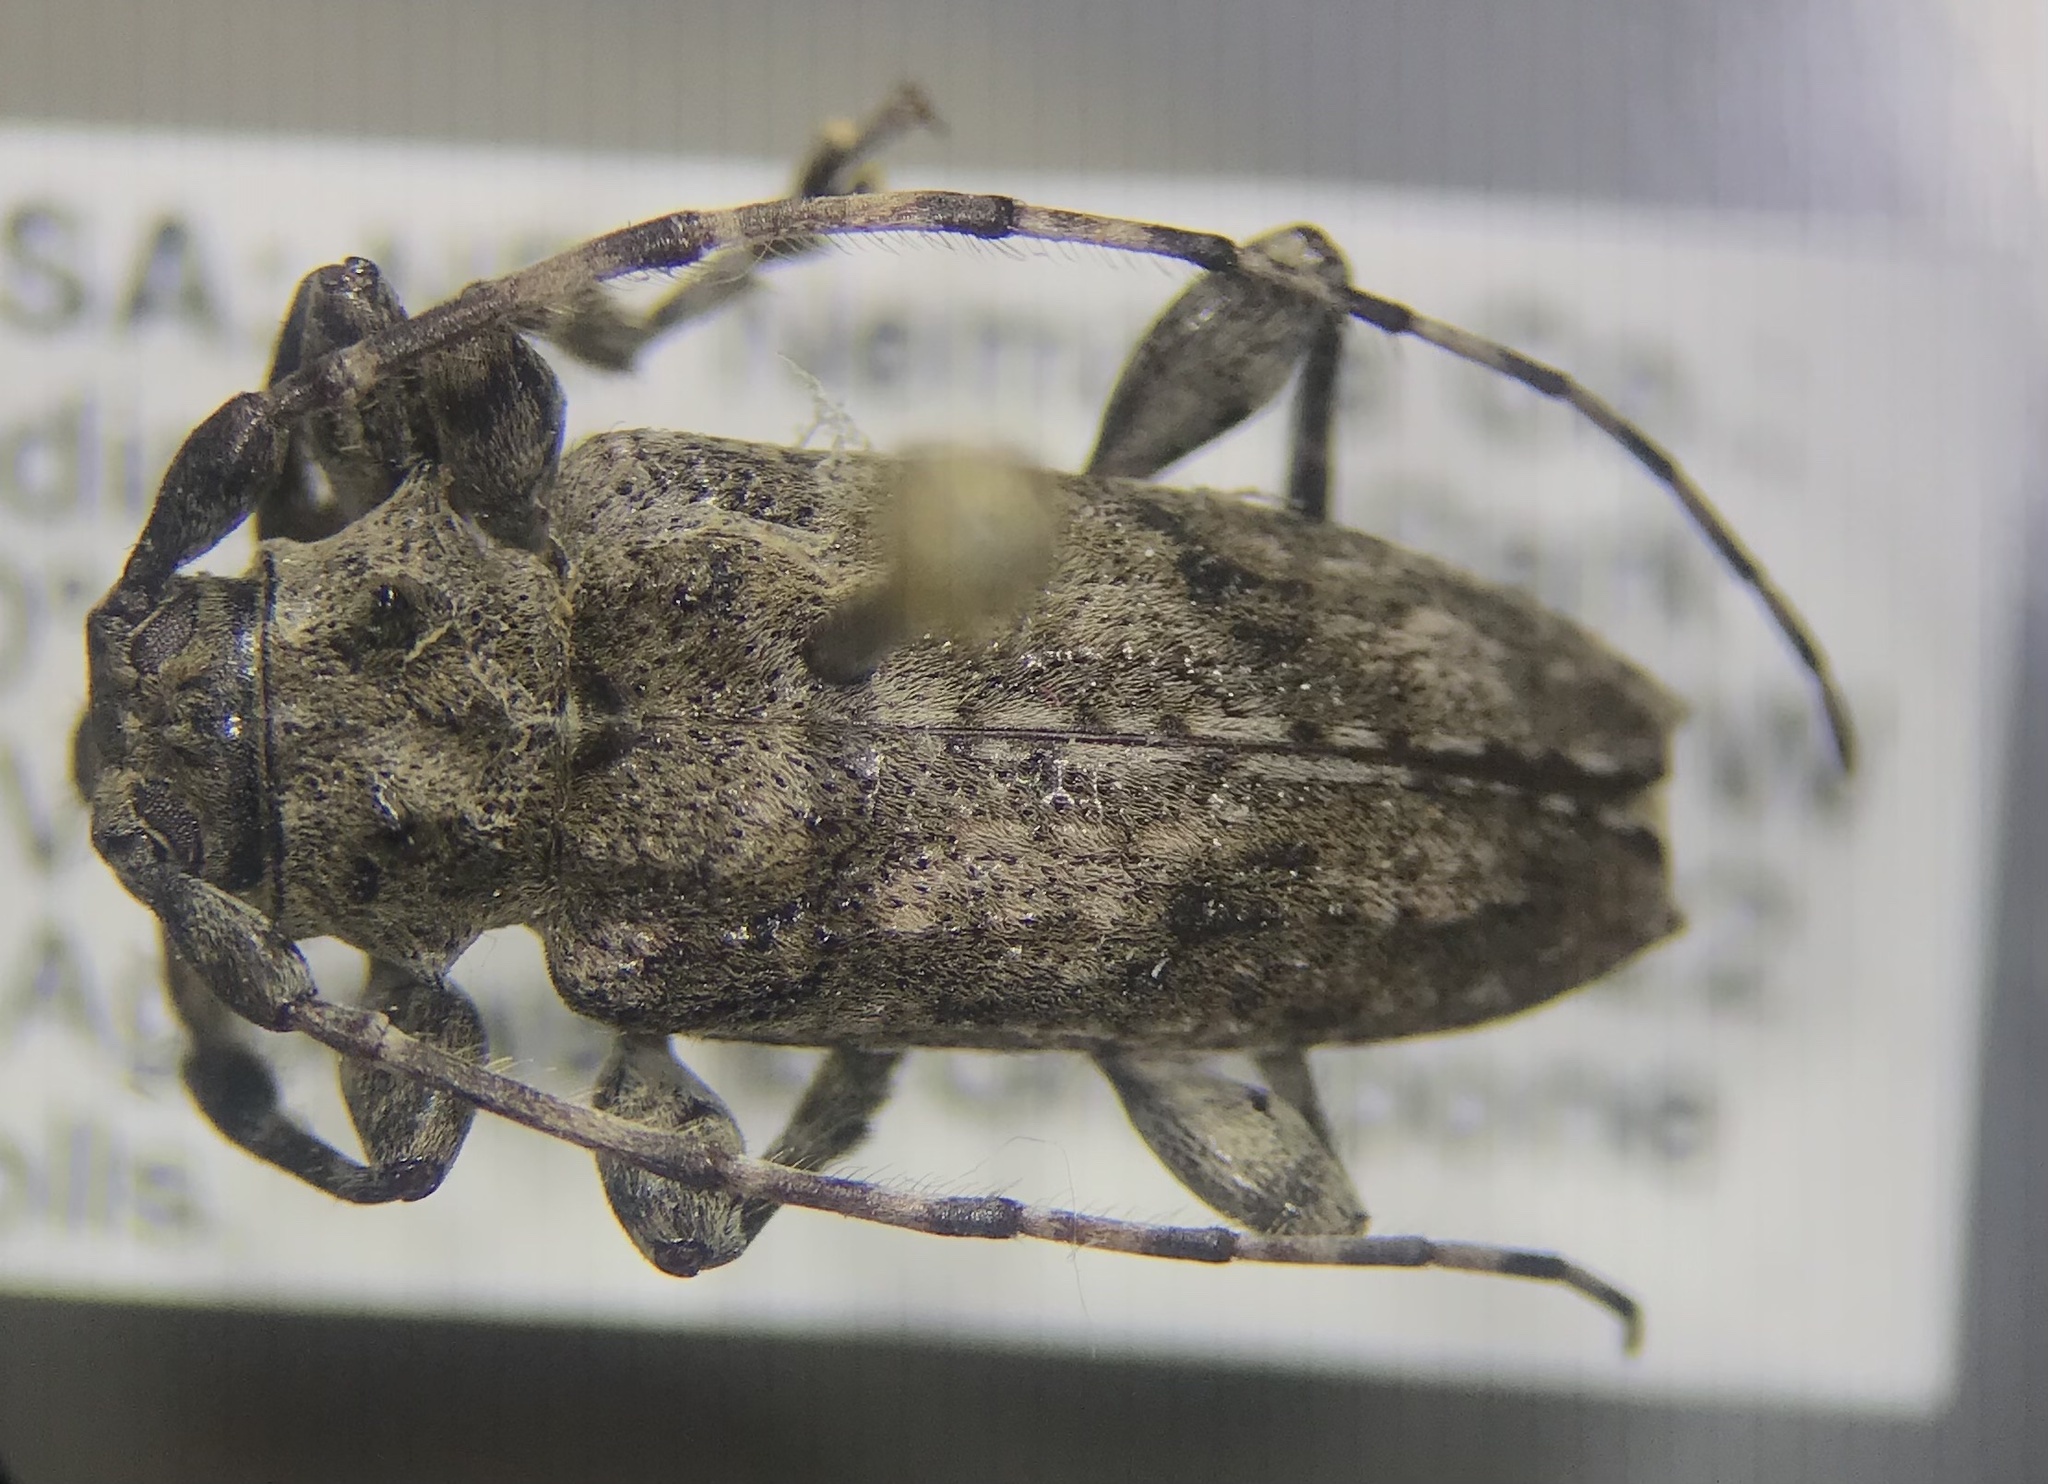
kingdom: Animalia
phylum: Arthropoda
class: Insecta
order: Coleoptera
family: Cerambycidae
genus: Aegomorphus
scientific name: Aegomorphus modestus
